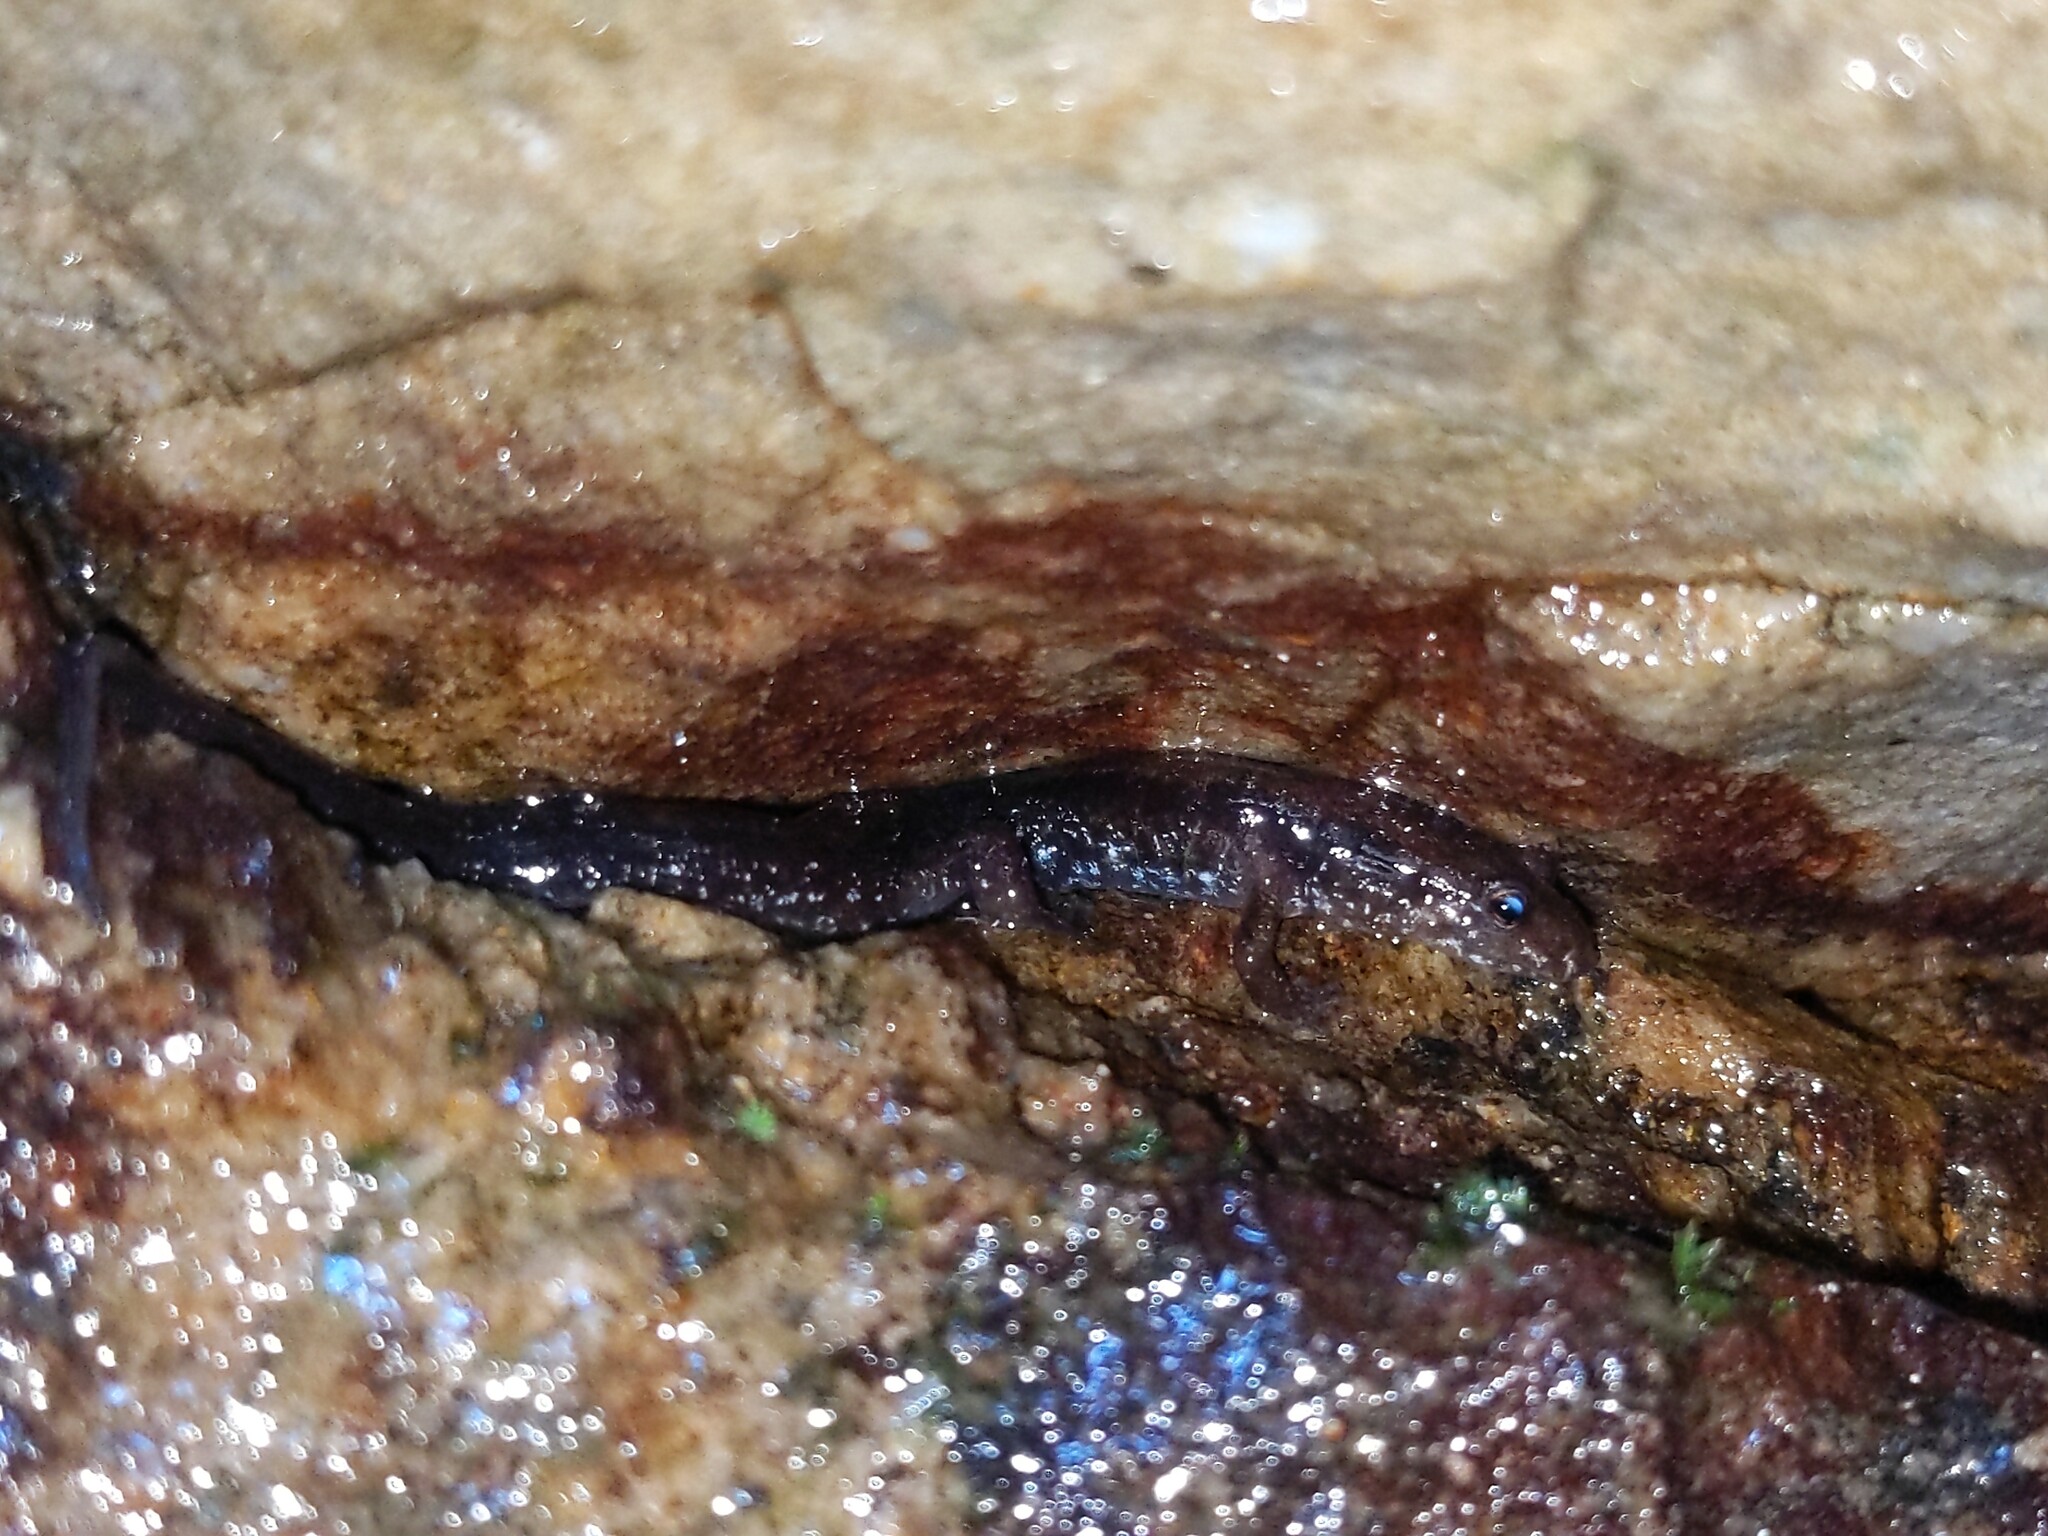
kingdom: Animalia
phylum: Chordata
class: Amphibia
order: Caudata
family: Plethodontidae
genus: Desmognathus
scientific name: Desmognathus ochrophaeus
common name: Allegheny mountain dusky salamander
